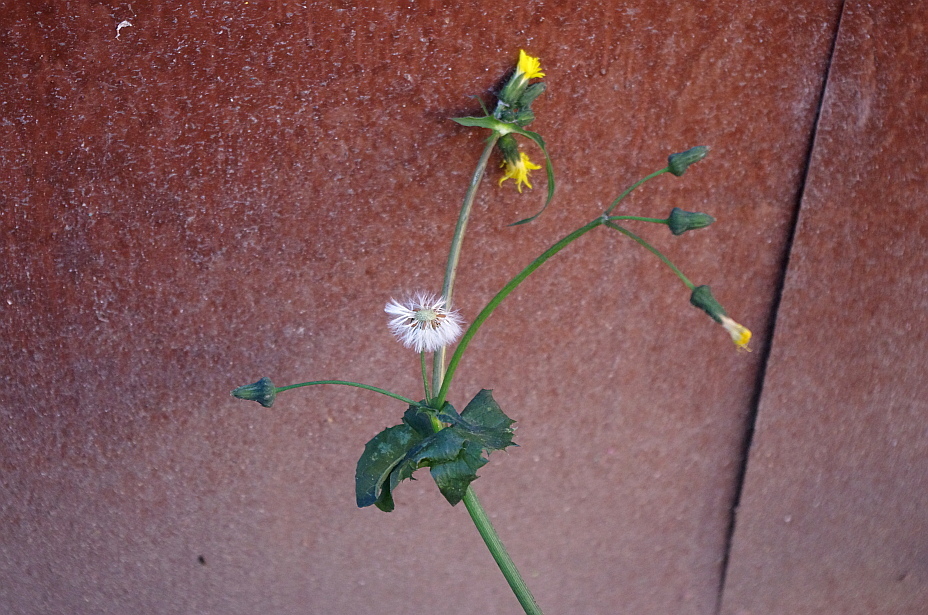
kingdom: Plantae
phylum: Tracheophyta
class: Magnoliopsida
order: Asterales
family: Asteraceae
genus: Sonchus
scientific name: Sonchus oleraceus
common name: Common sowthistle
